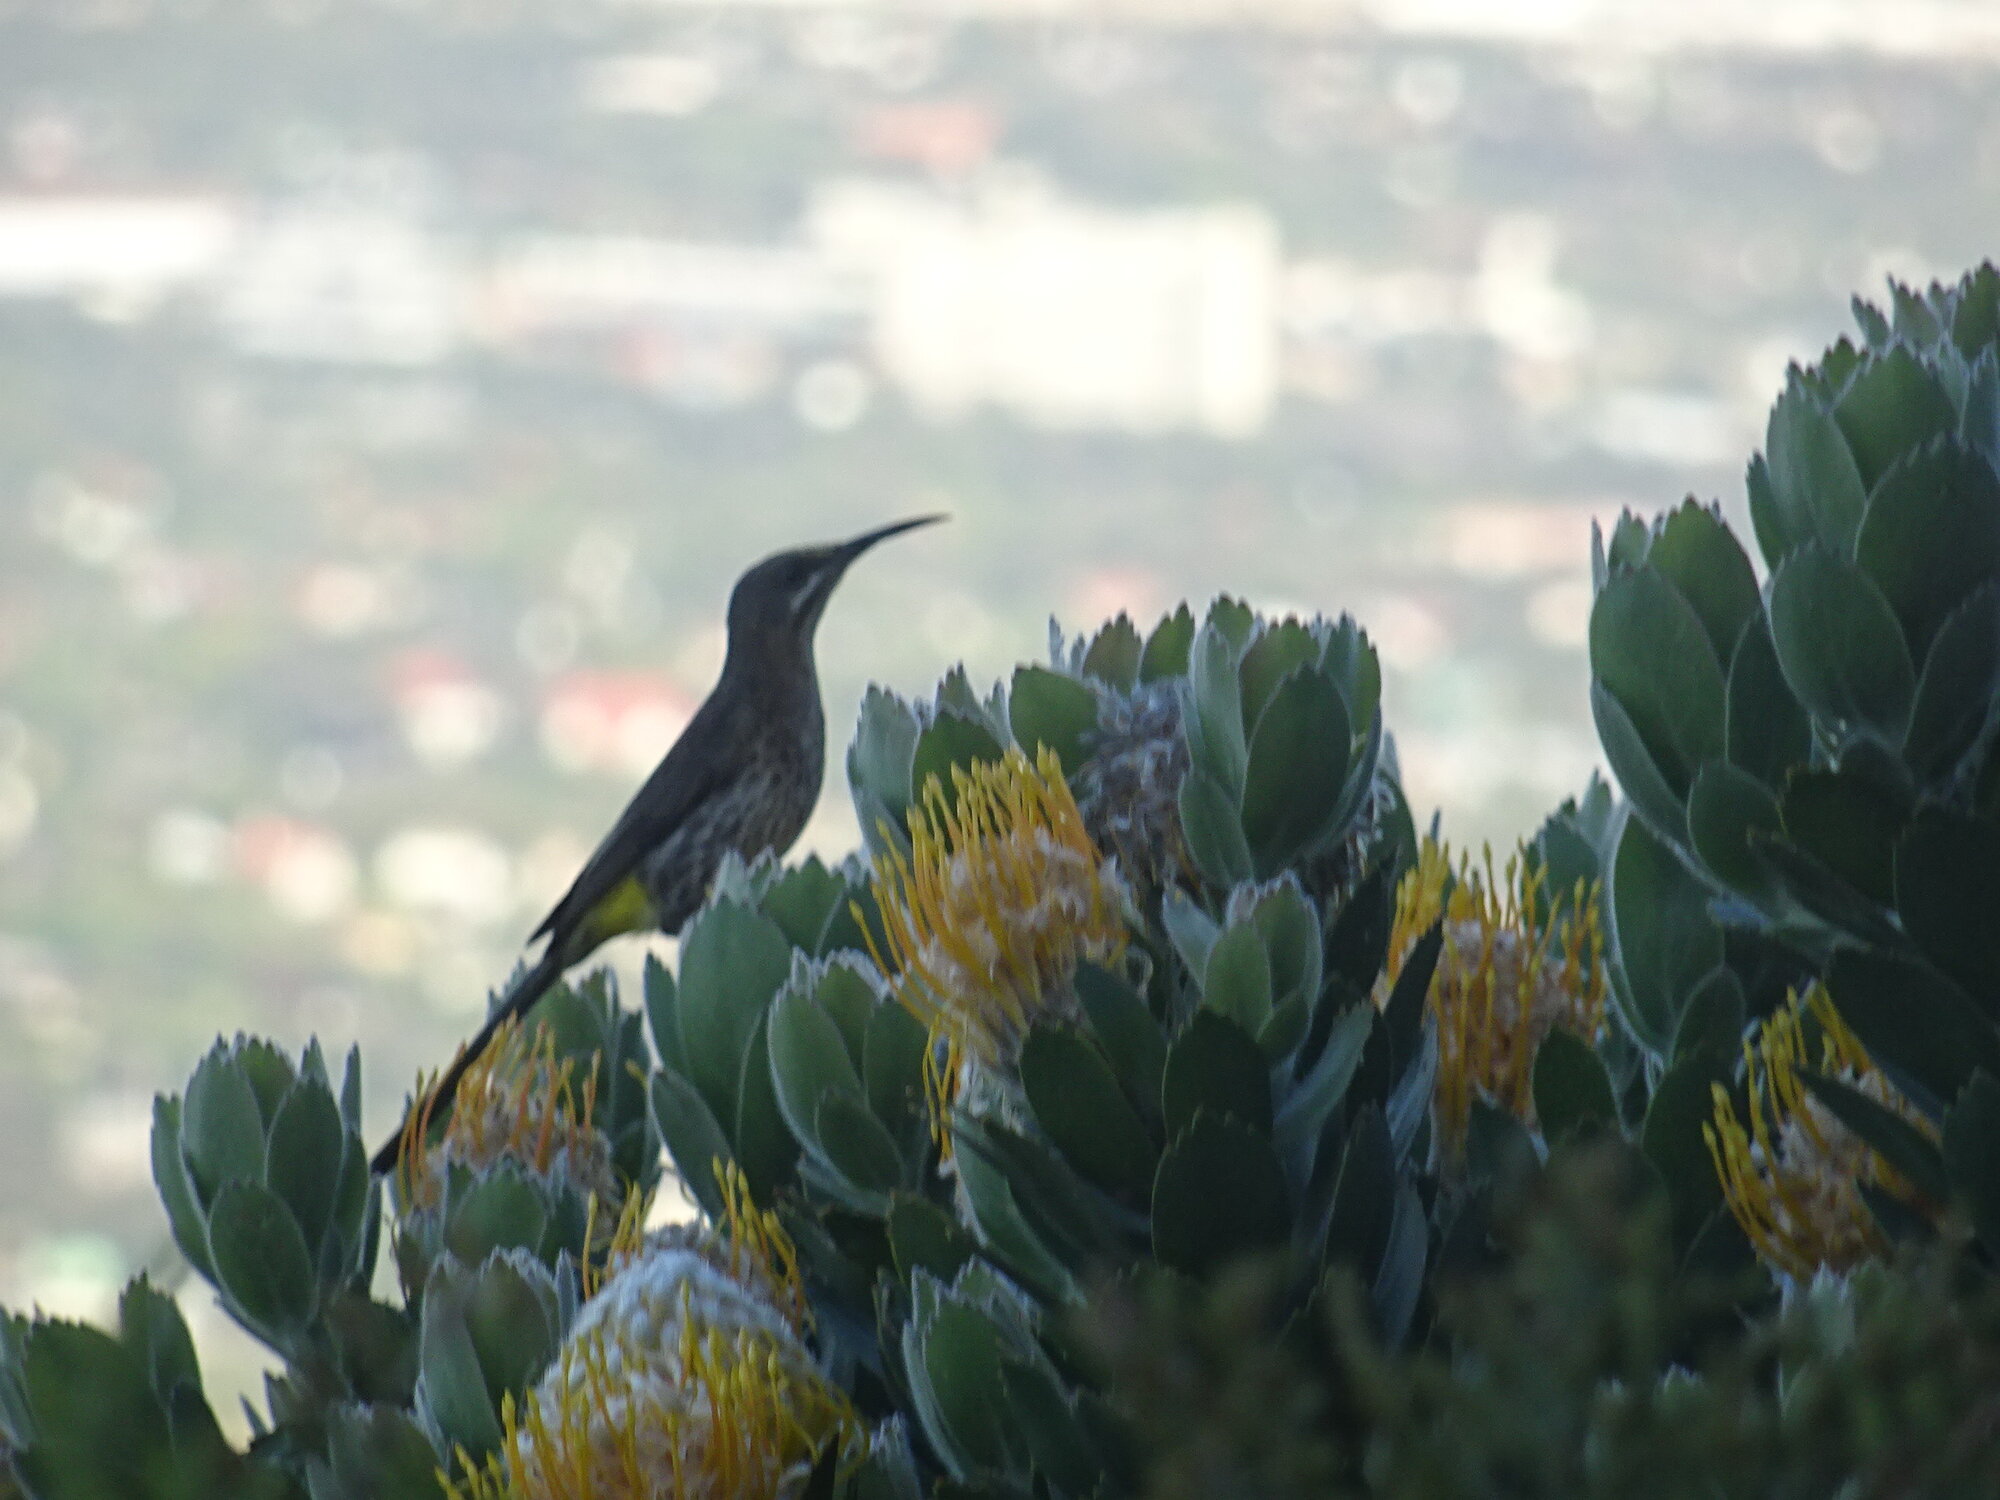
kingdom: Animalia
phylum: Chordata
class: Aves
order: Passeriformes
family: Promeropidae
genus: Promerops
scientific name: Promerops cafer
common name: Cape sugarbird
